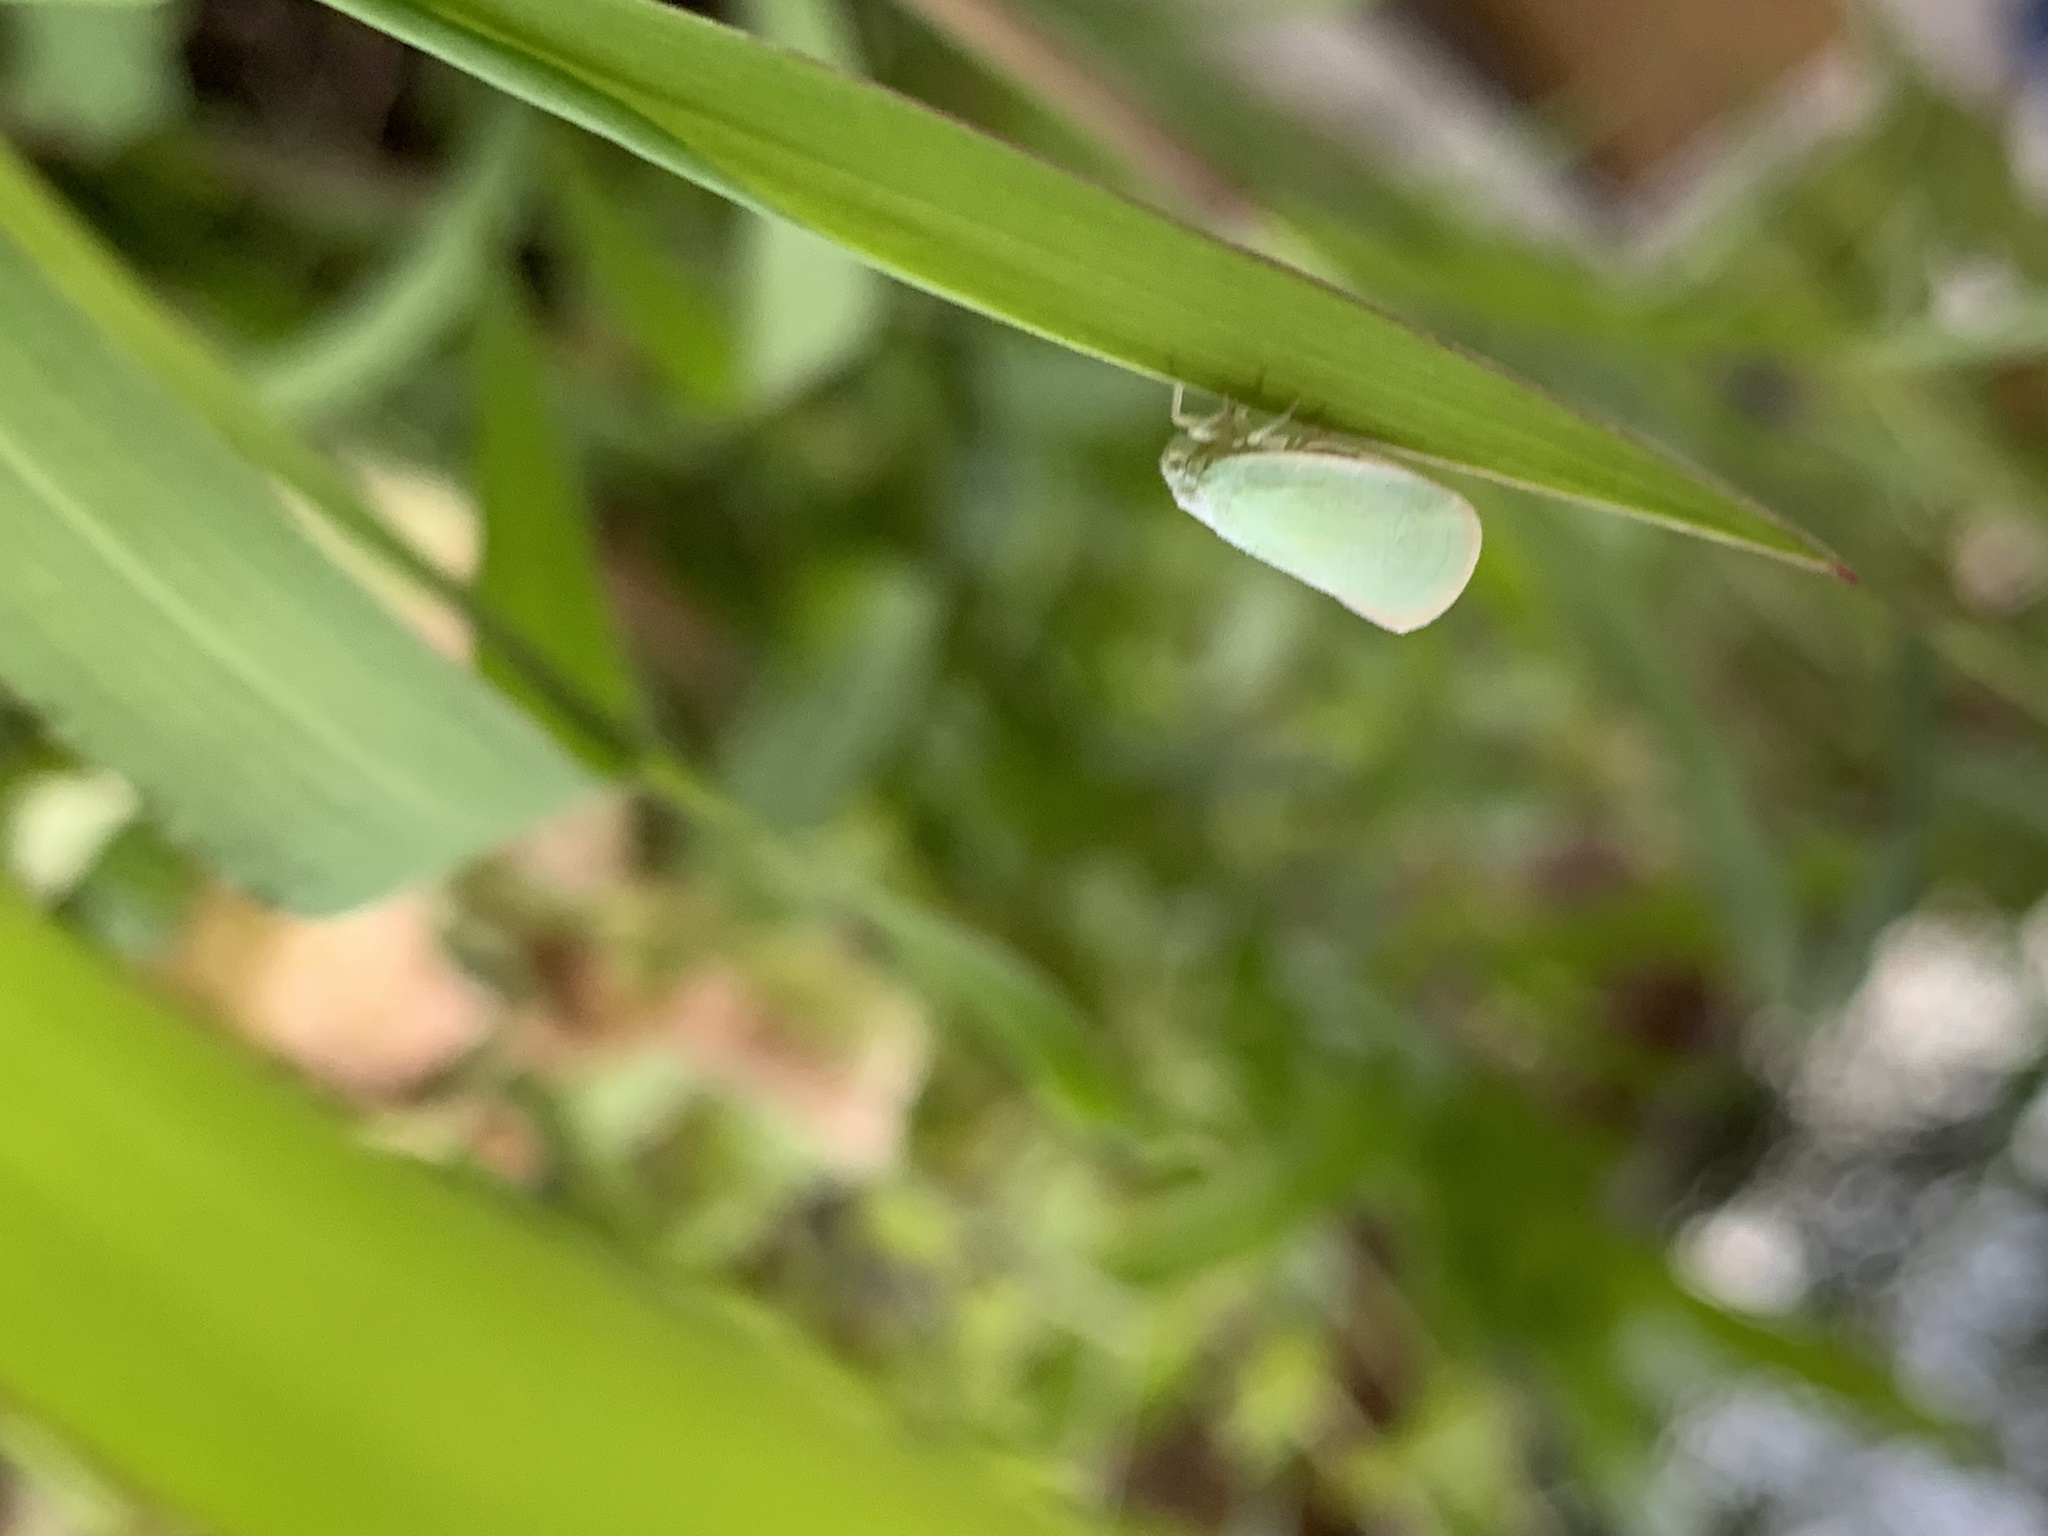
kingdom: Animalia
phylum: Arthropoda
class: Insecta
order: Hemiptera
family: Flatidae
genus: Ormenoides
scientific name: Ormenoides venusta
